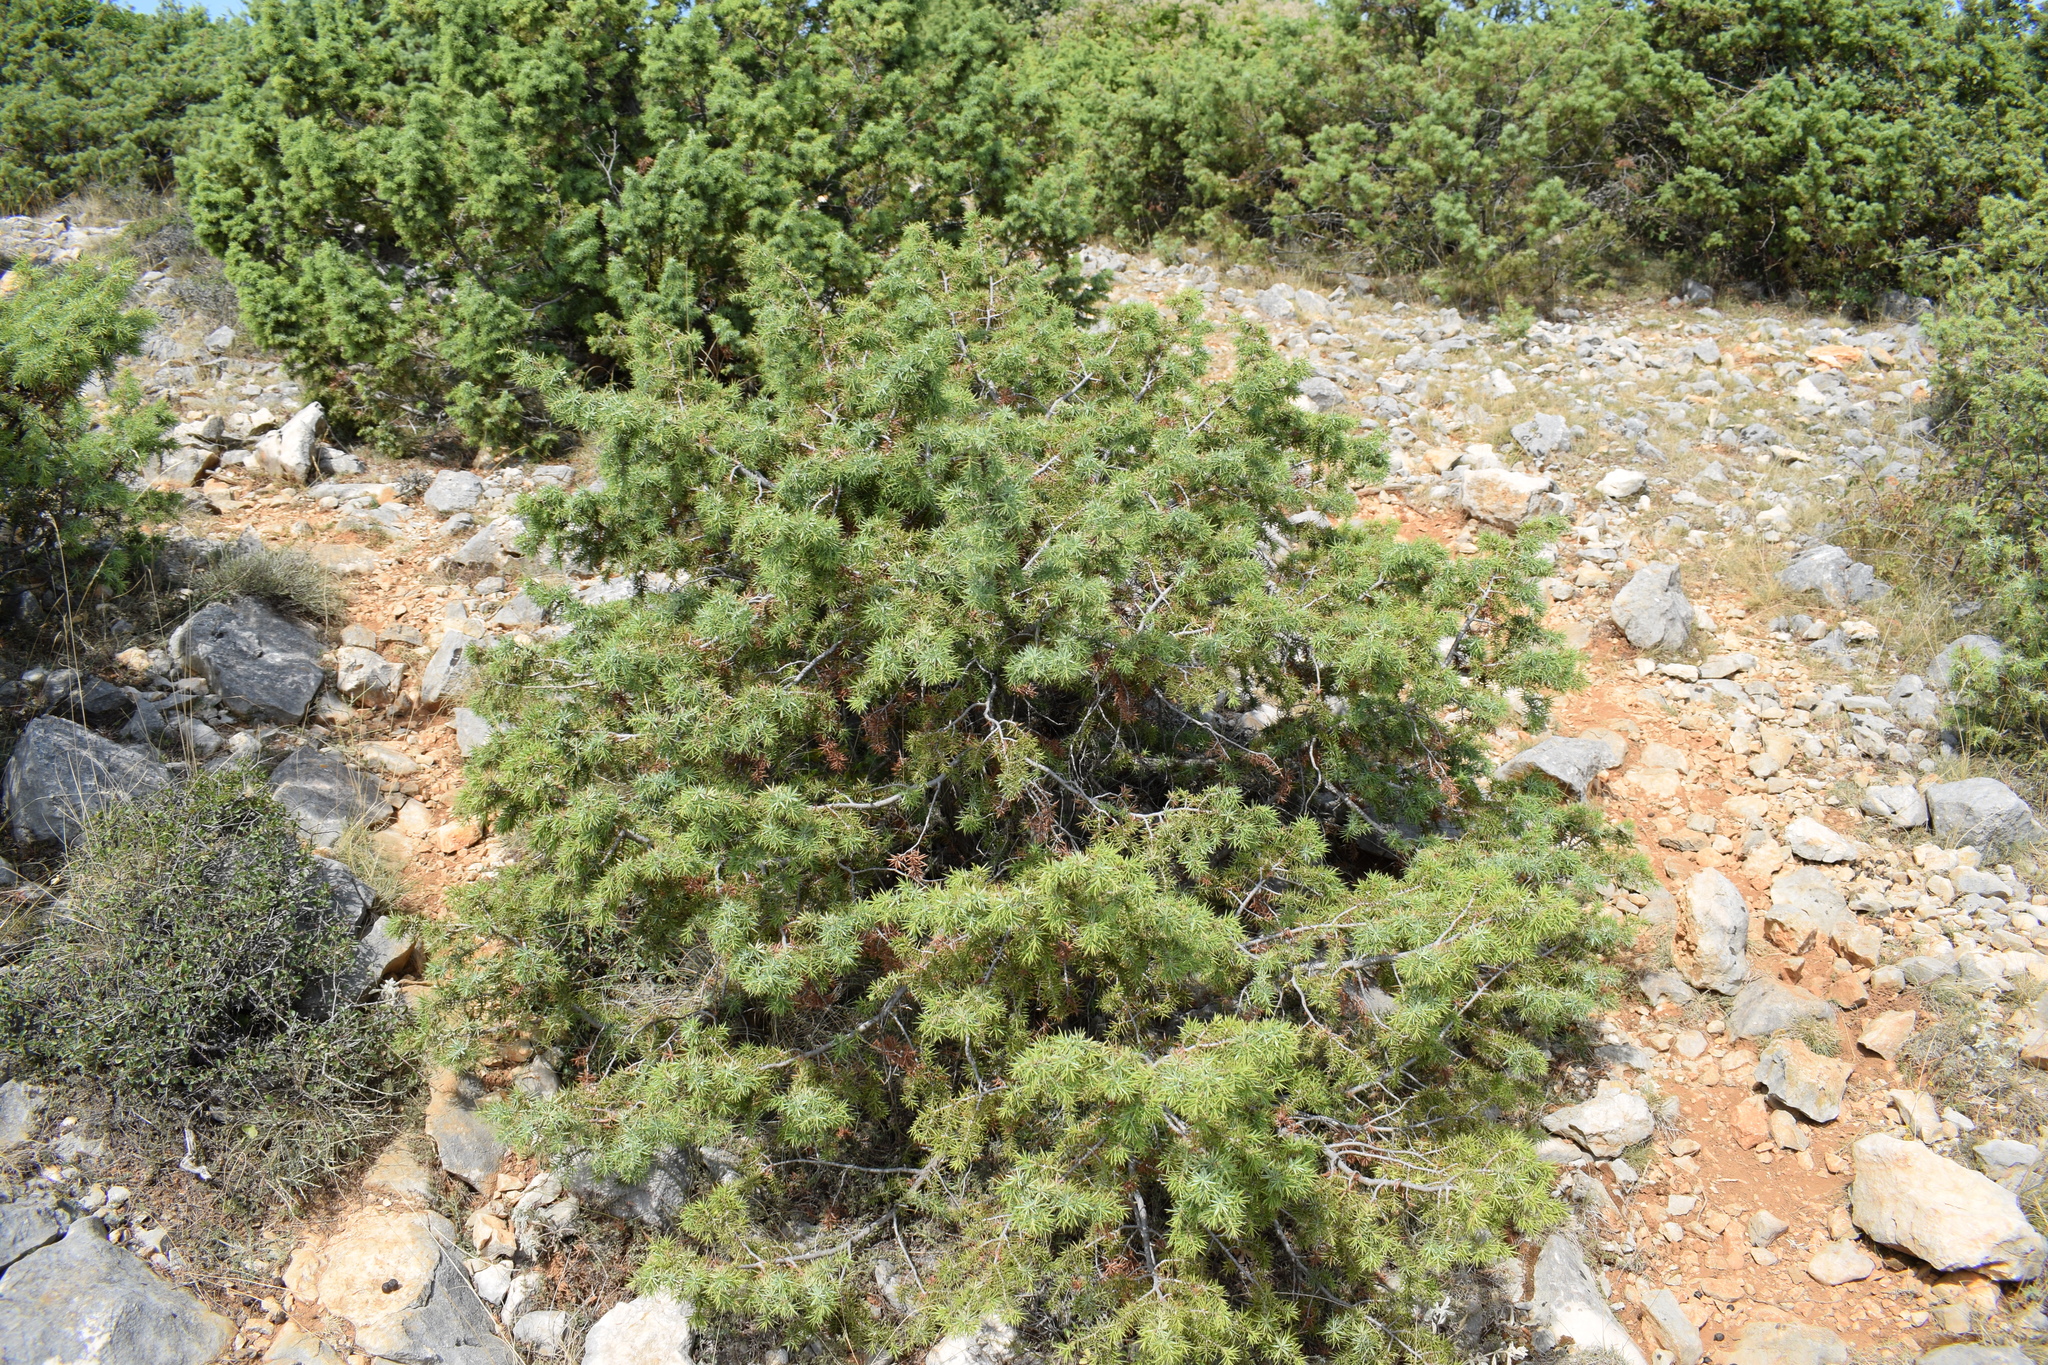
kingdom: Plantae
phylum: Tracheophyta
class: Pinopsida
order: Pinales
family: Cupressaceae
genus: Juniperus
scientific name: Juniperus oxycedrus
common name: Prickly juniper
